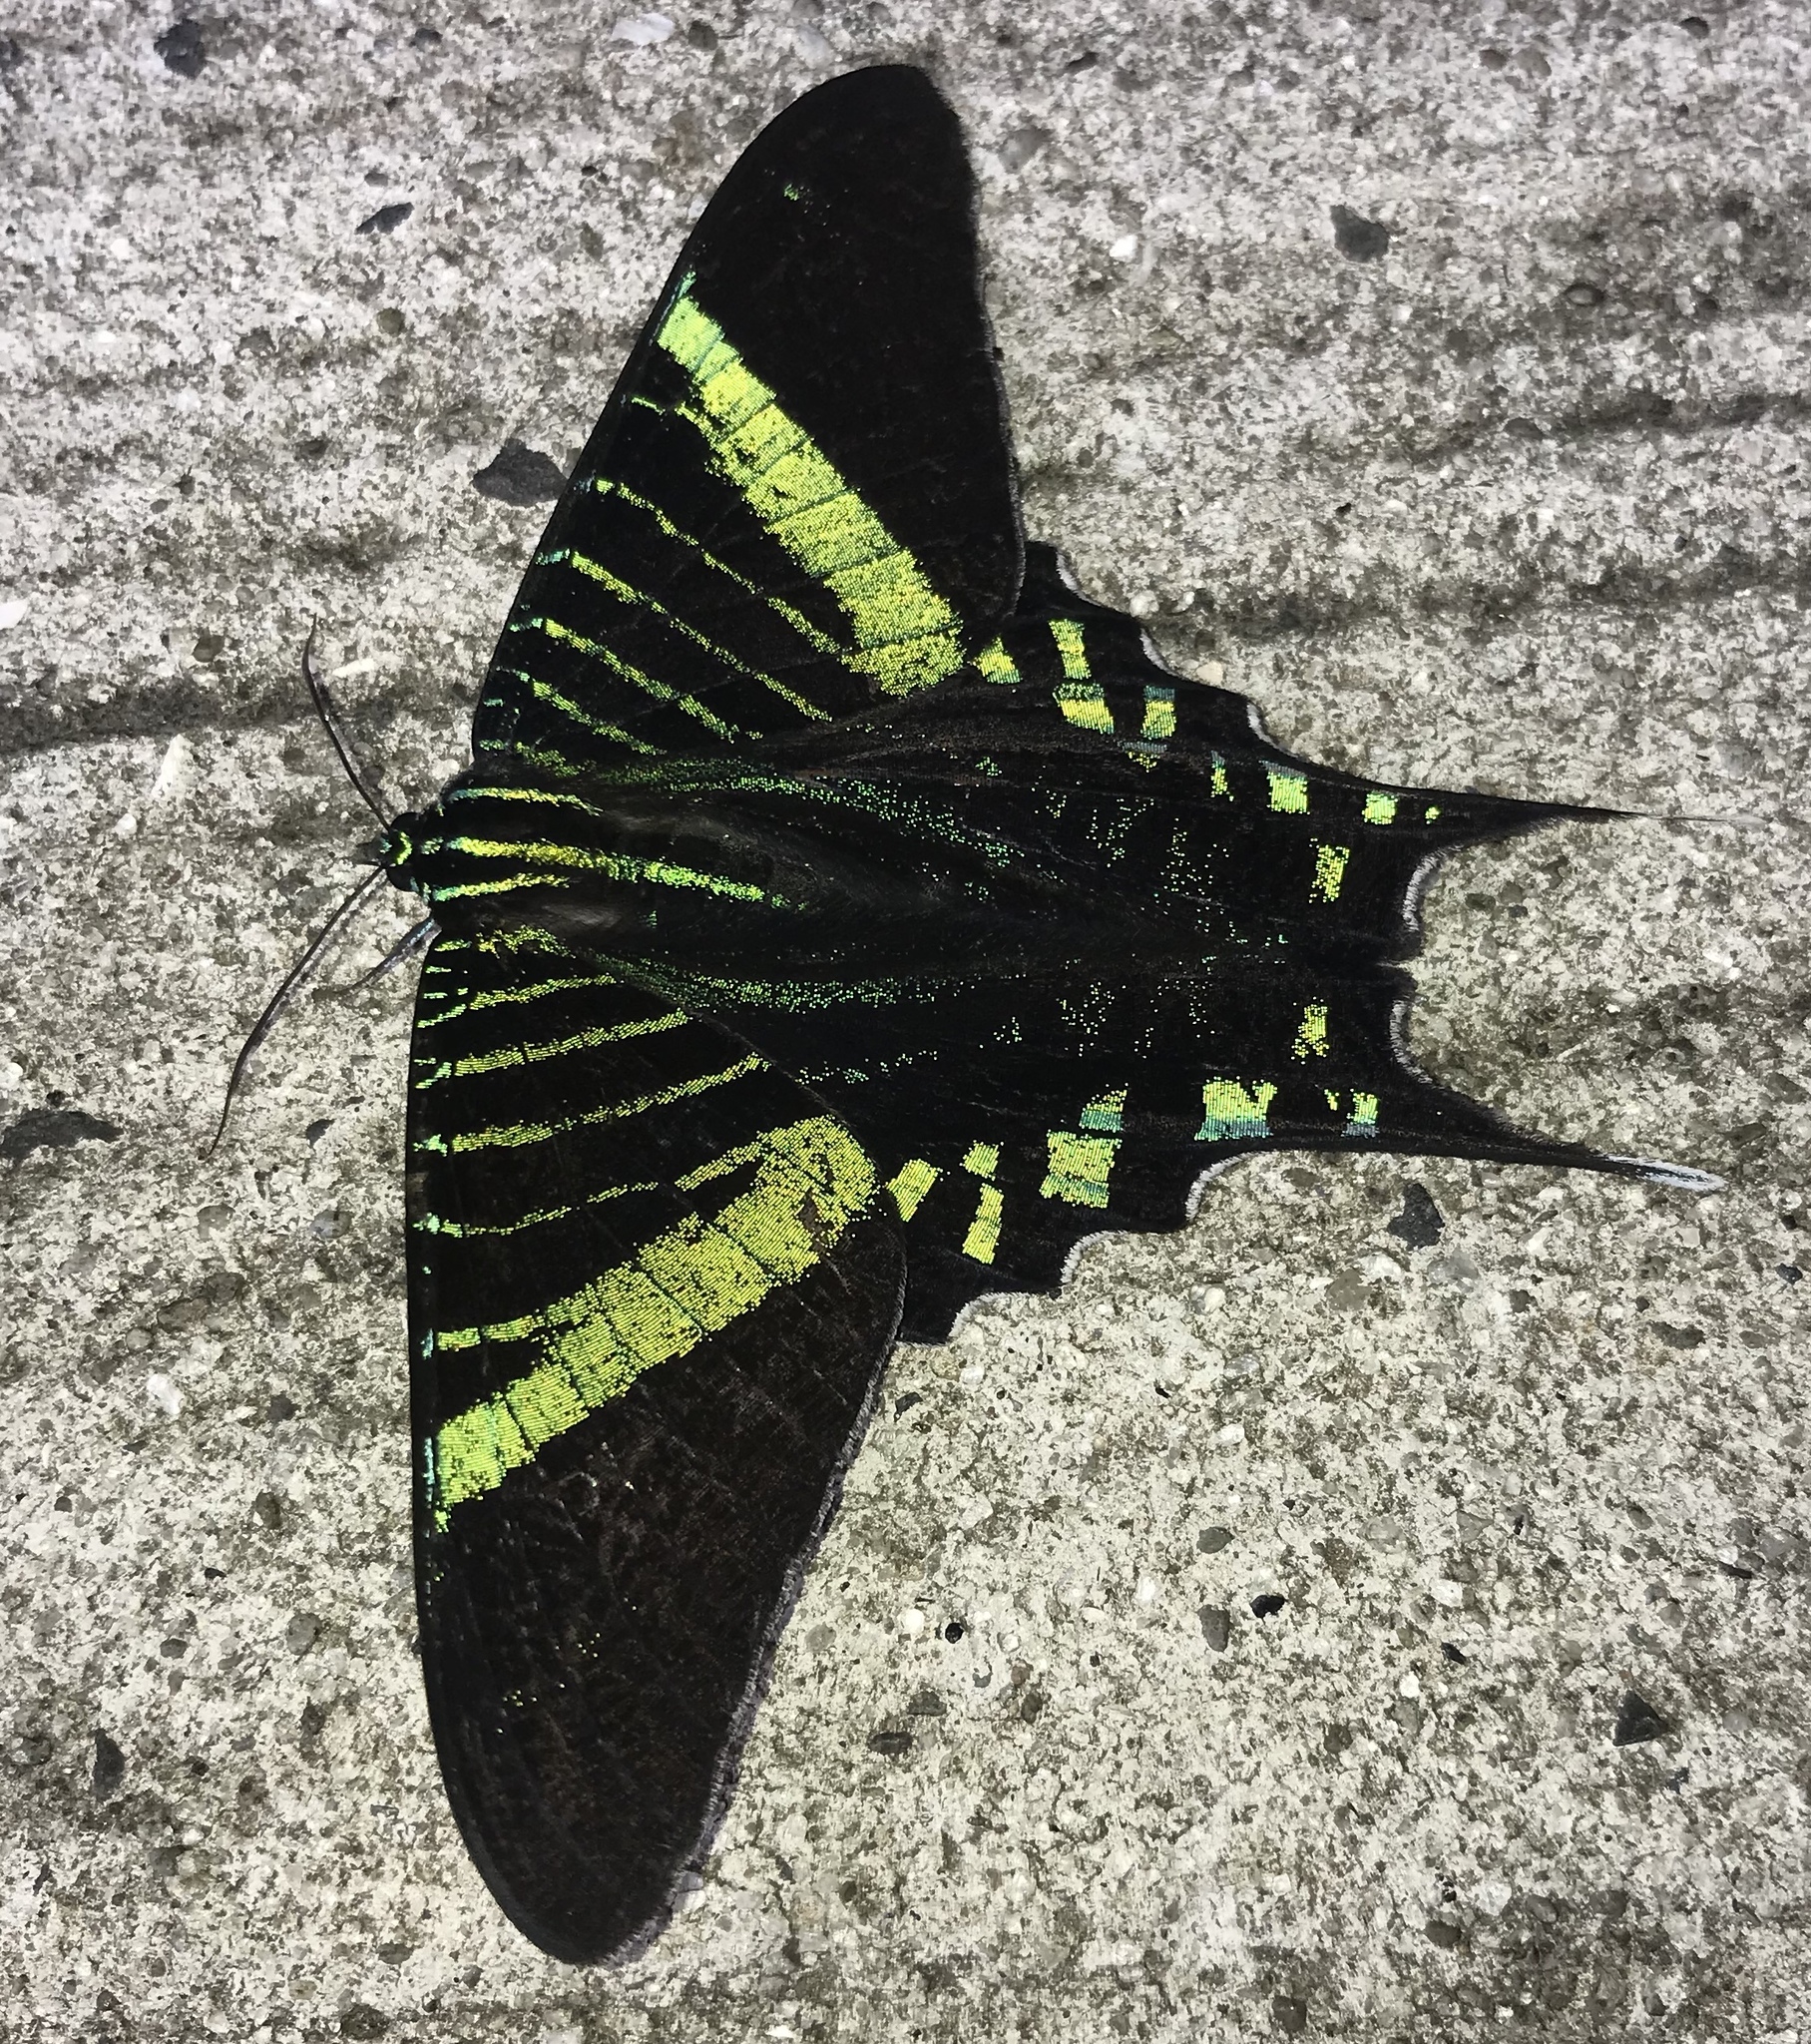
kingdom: Animalia
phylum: Arthropoda
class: Insecta
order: Lepidoptera
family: Uraniidae
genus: Urania
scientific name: Urania fulgens
